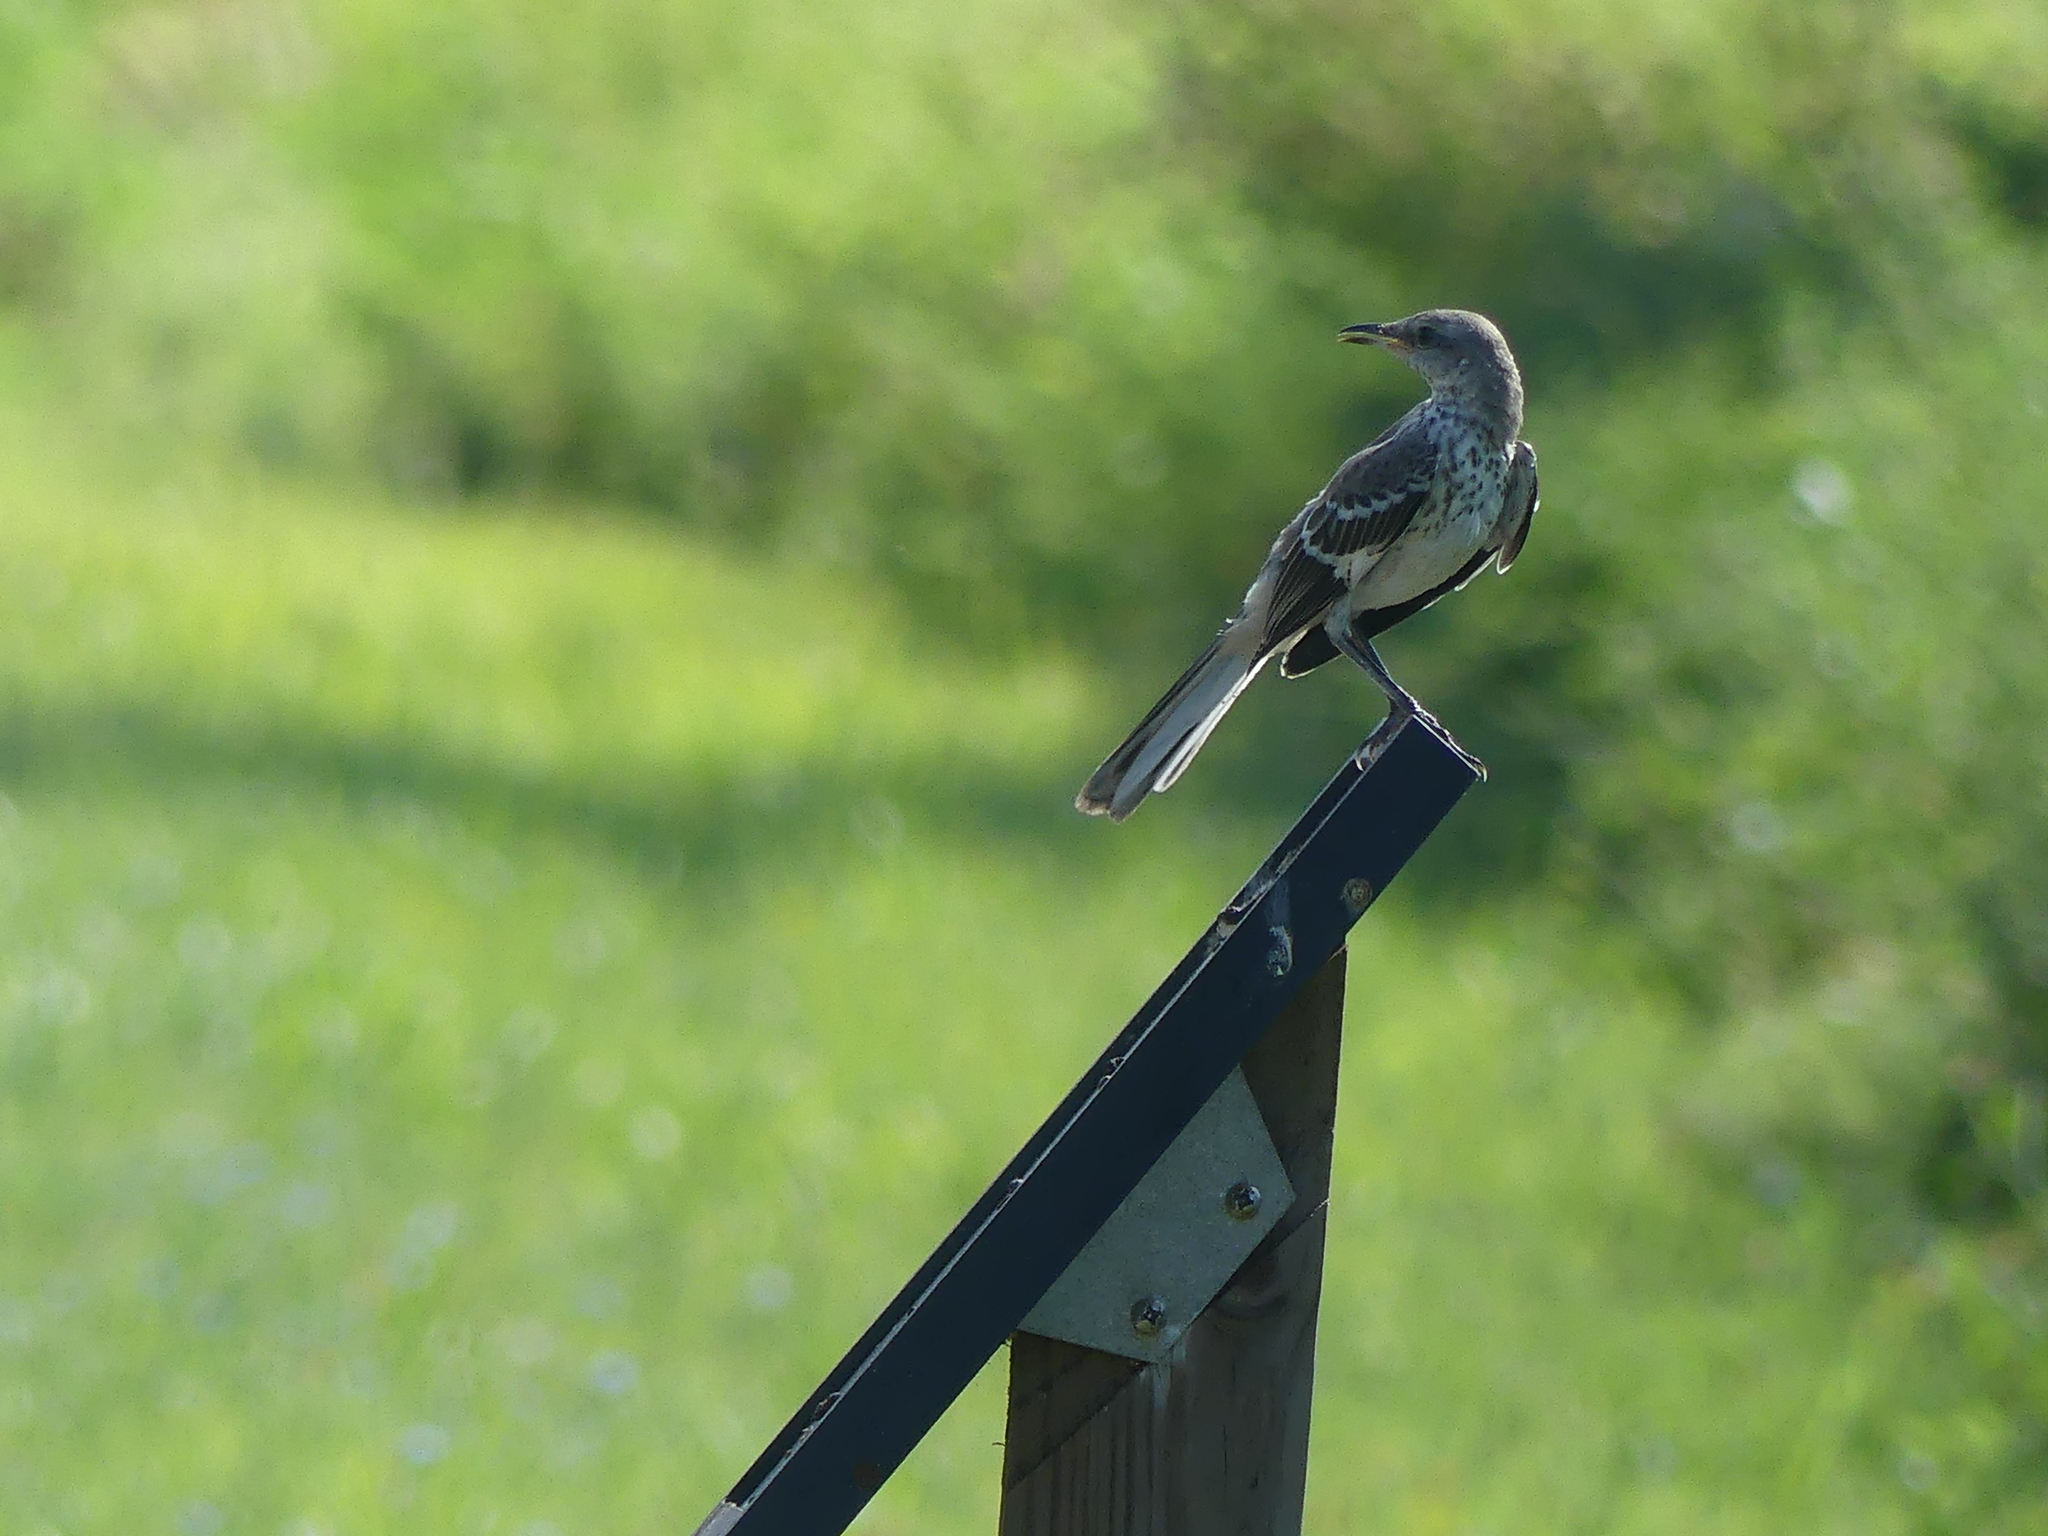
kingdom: Animalia
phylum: Chordata
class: Aves
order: Passeriformes
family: Mimidae
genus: Mimus
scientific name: Mimus polyglottos
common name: Northern mockingbird
